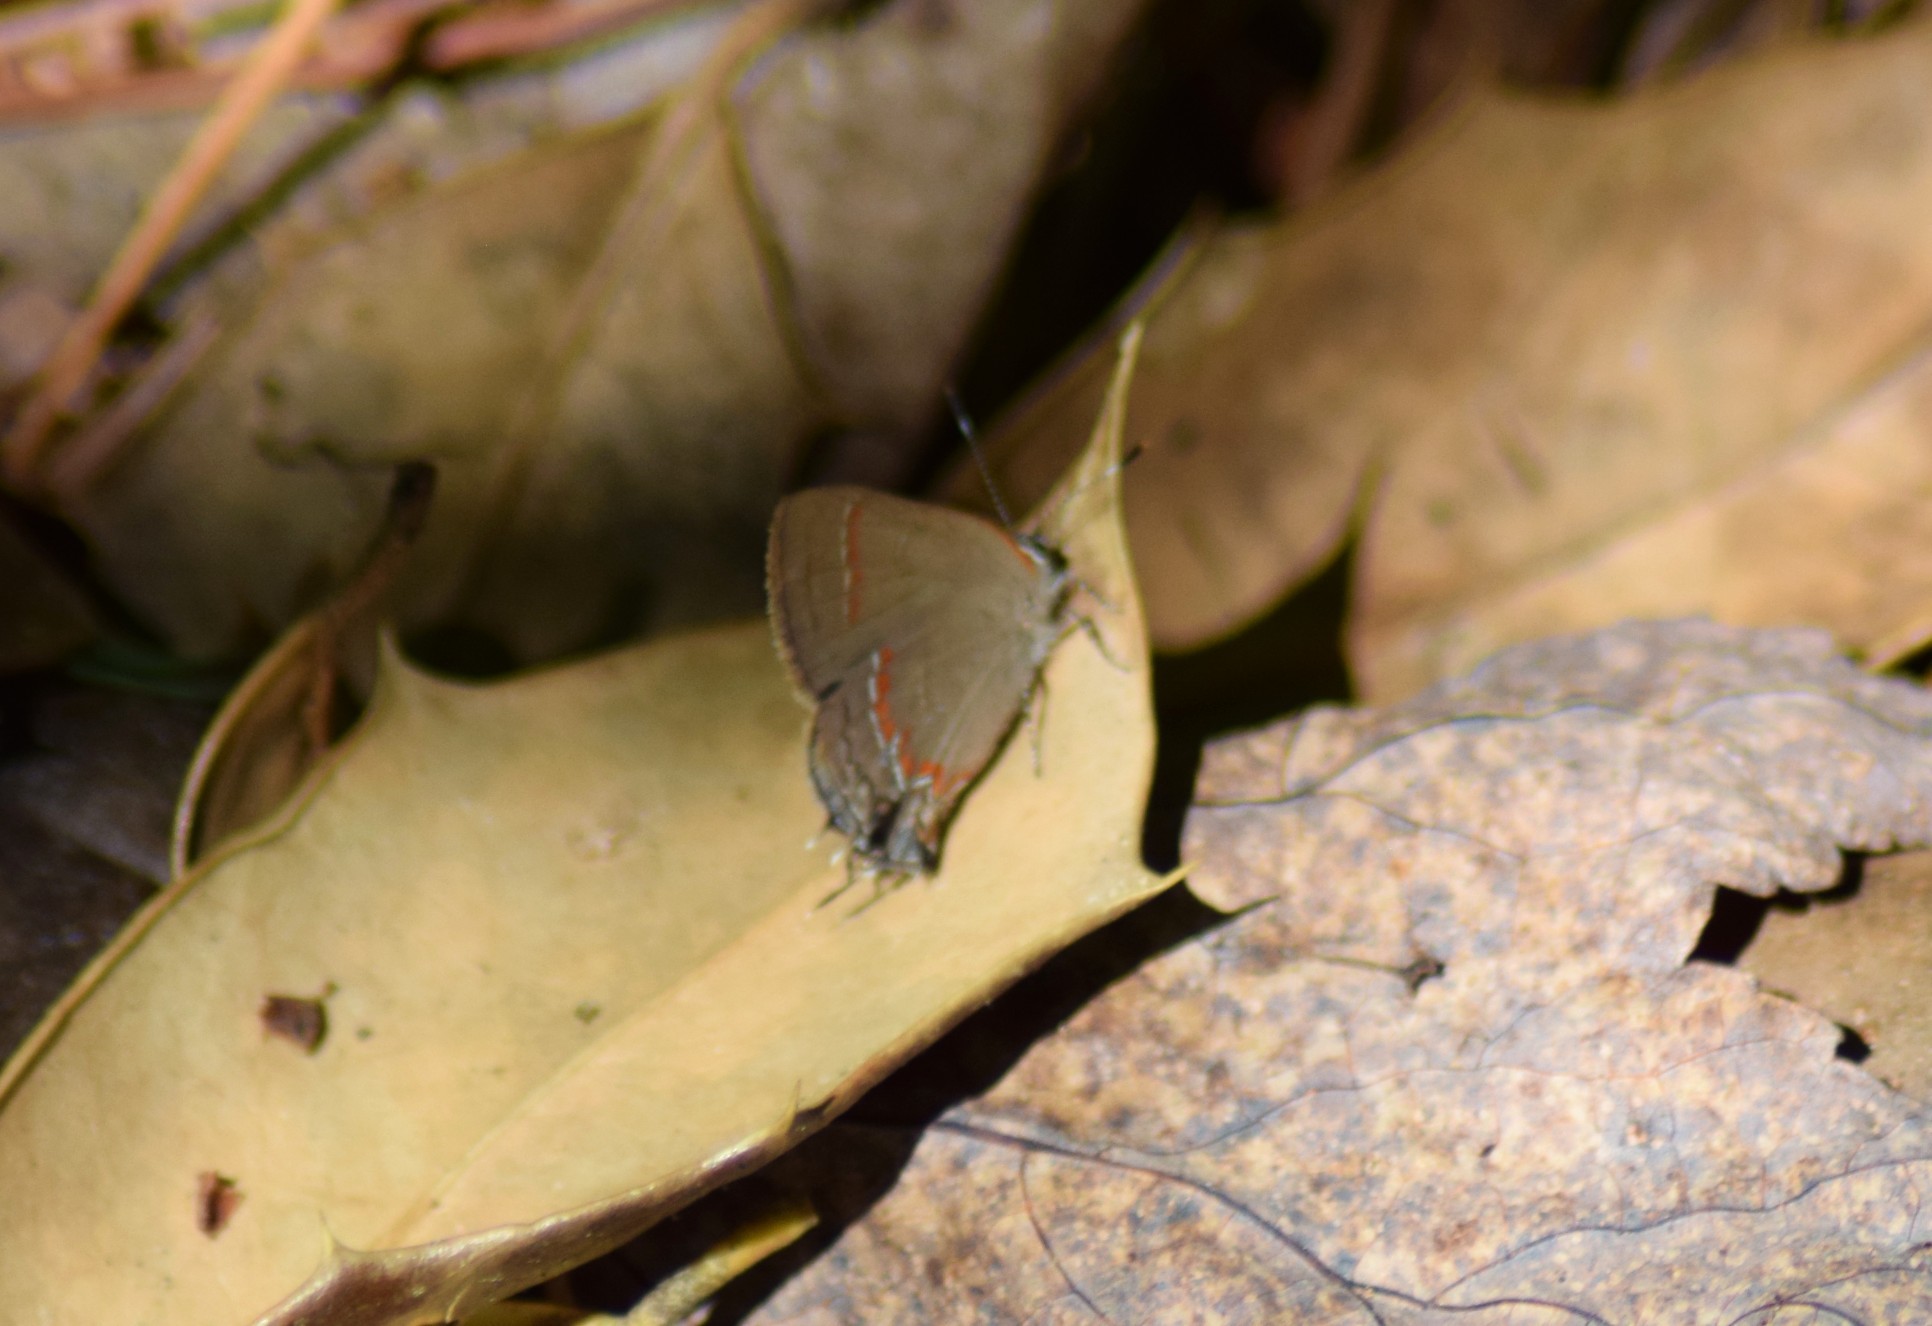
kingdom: Animalia
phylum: Arthropoda
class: Insecta
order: Lepidoptera
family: Lycaenidae
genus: Calycopis
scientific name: Calycopis cecrops
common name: Red-banded hairstreak
